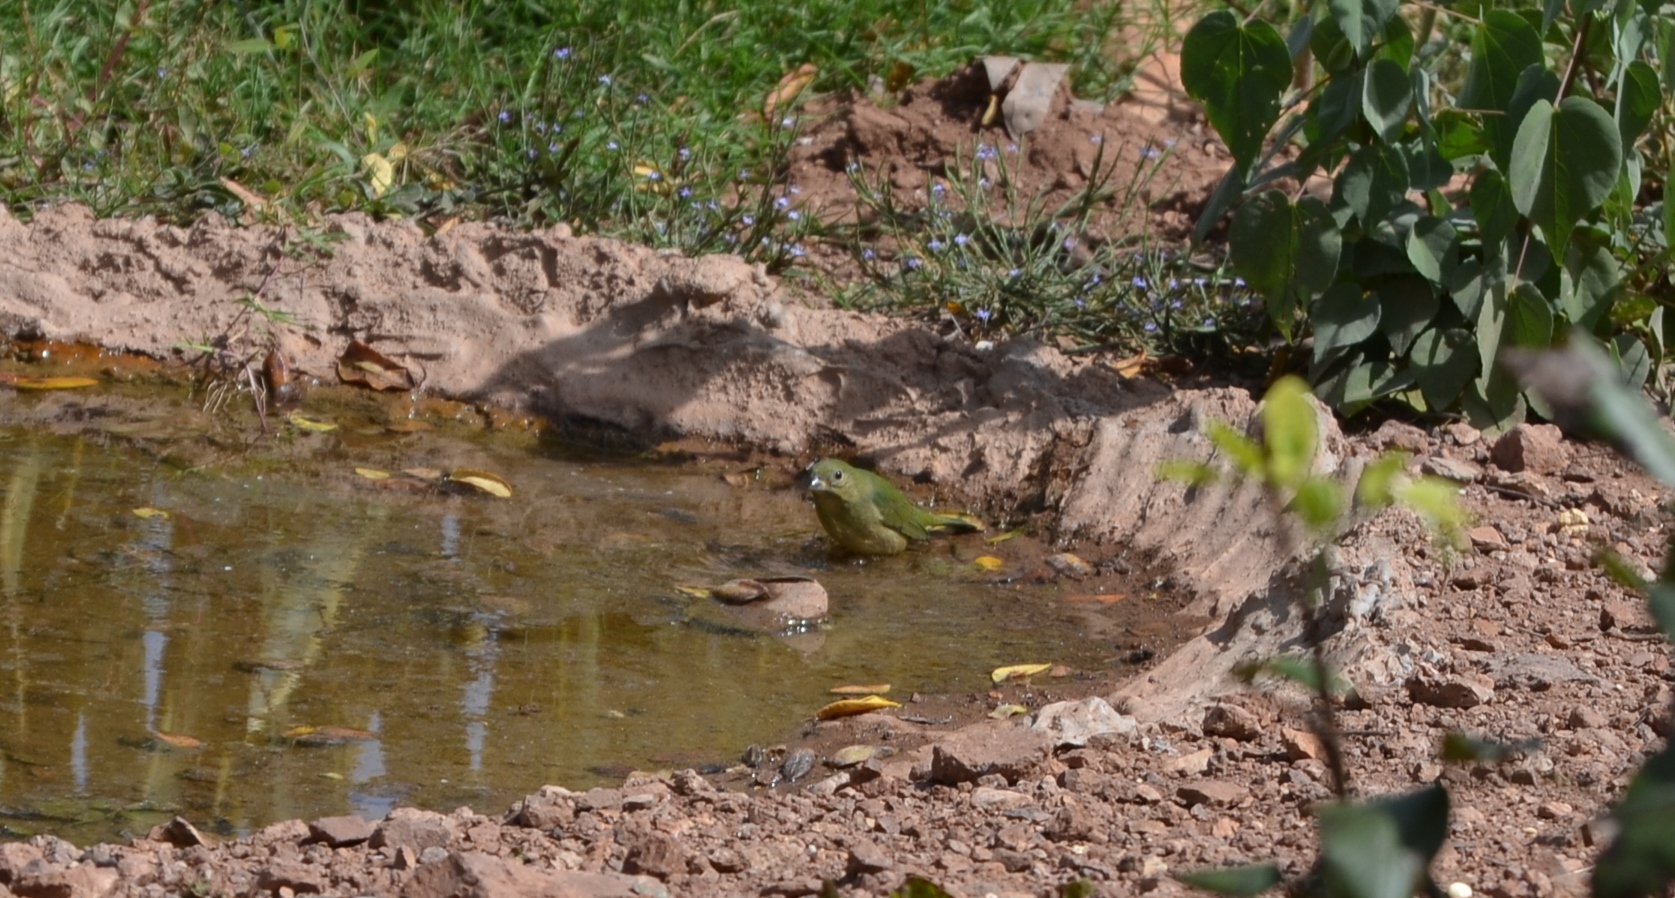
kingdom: Animalia
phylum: Chordata
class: Aves
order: Passeriformes
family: Cardinalidae
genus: Passerina
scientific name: Passerina ciris
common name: Painted bunting
